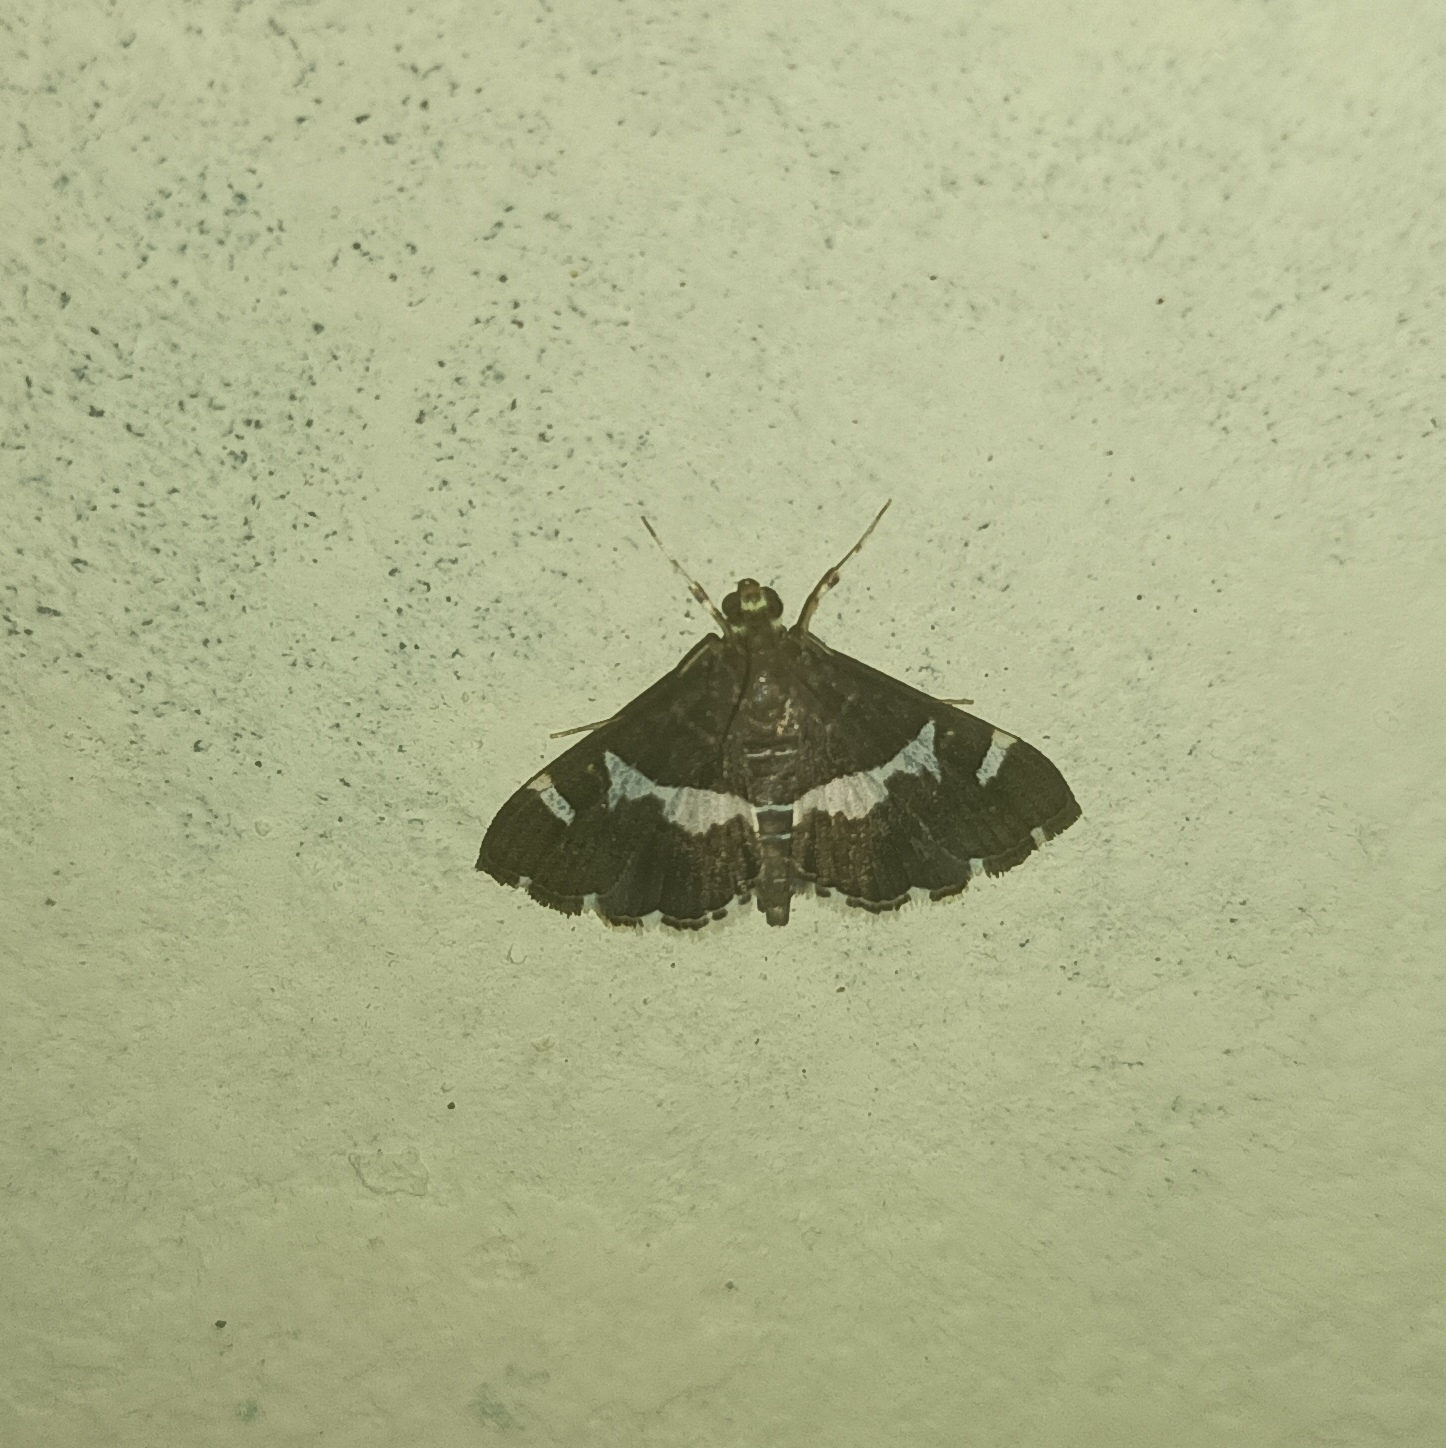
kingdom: Animalia
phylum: Arthropoda
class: Insecta
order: Lepidoptera
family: Crambidae
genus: Spoladea
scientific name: Spoladea recurvalis
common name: Beet webworm moth
